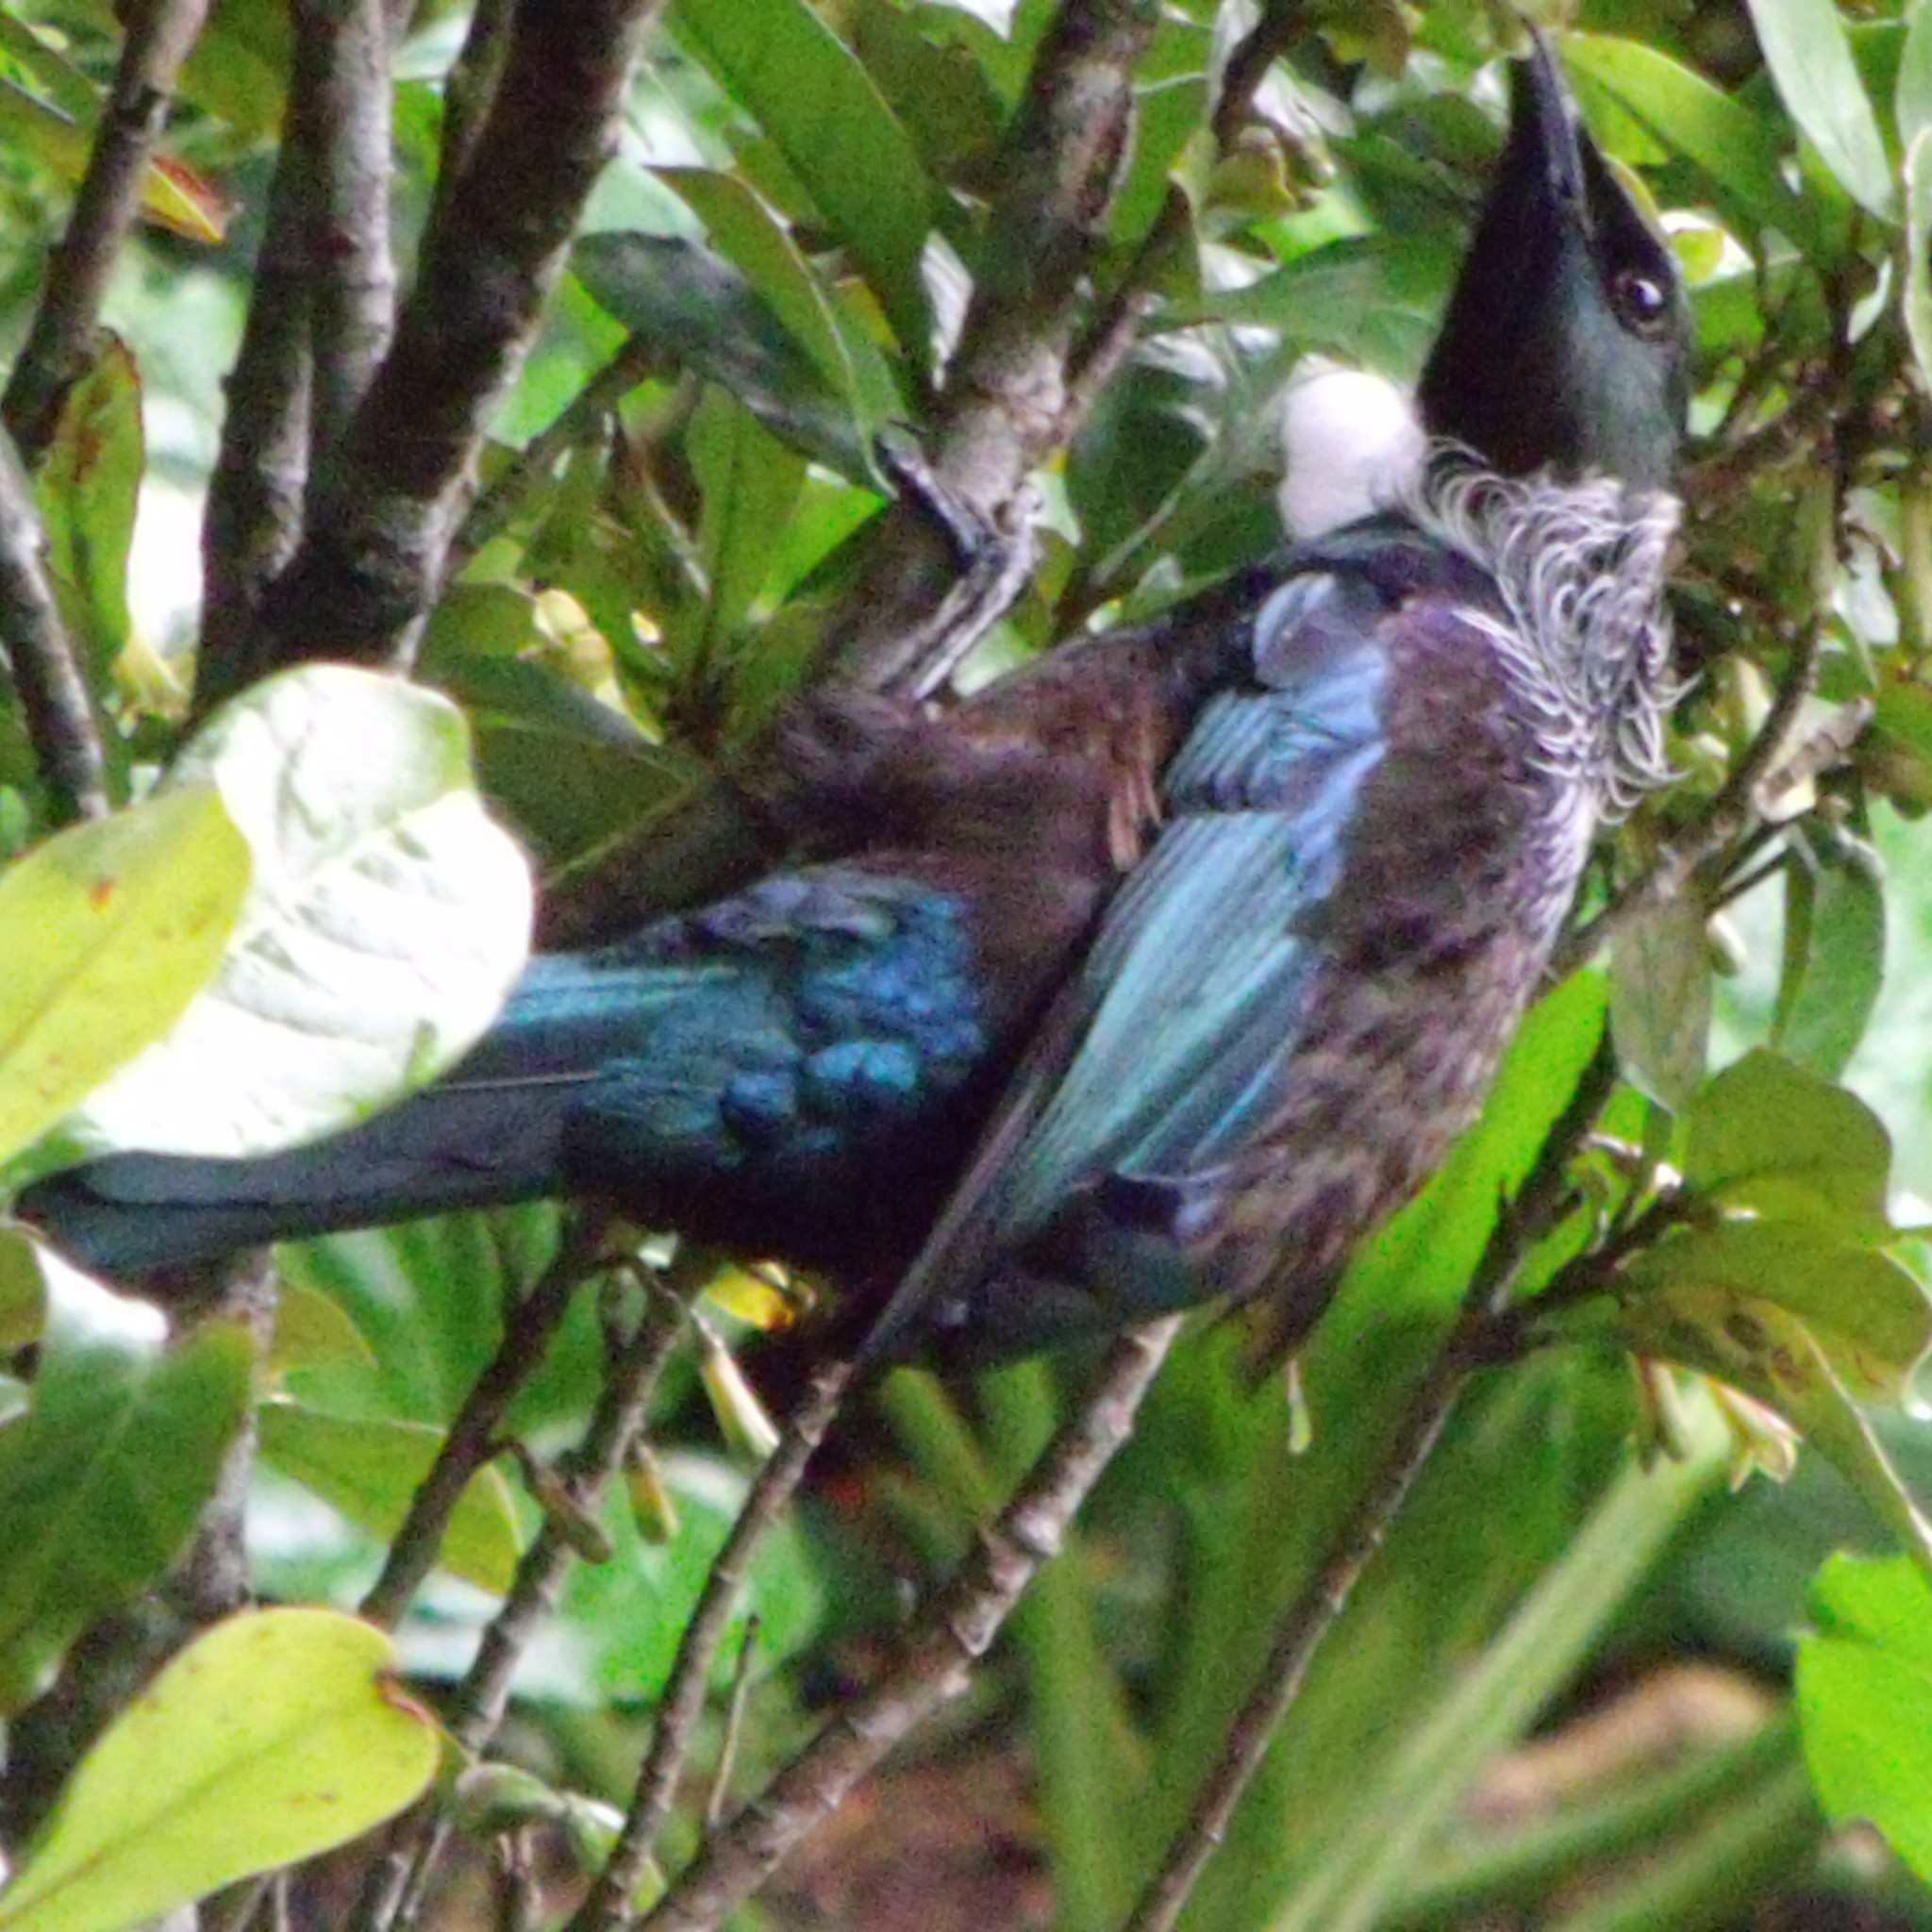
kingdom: Animalia
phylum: Chordata
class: Aves
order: Passeriformes
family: Meliphagidae
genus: Prosthemadera
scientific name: Prosthemadera novaeseelandiae
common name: Tui
